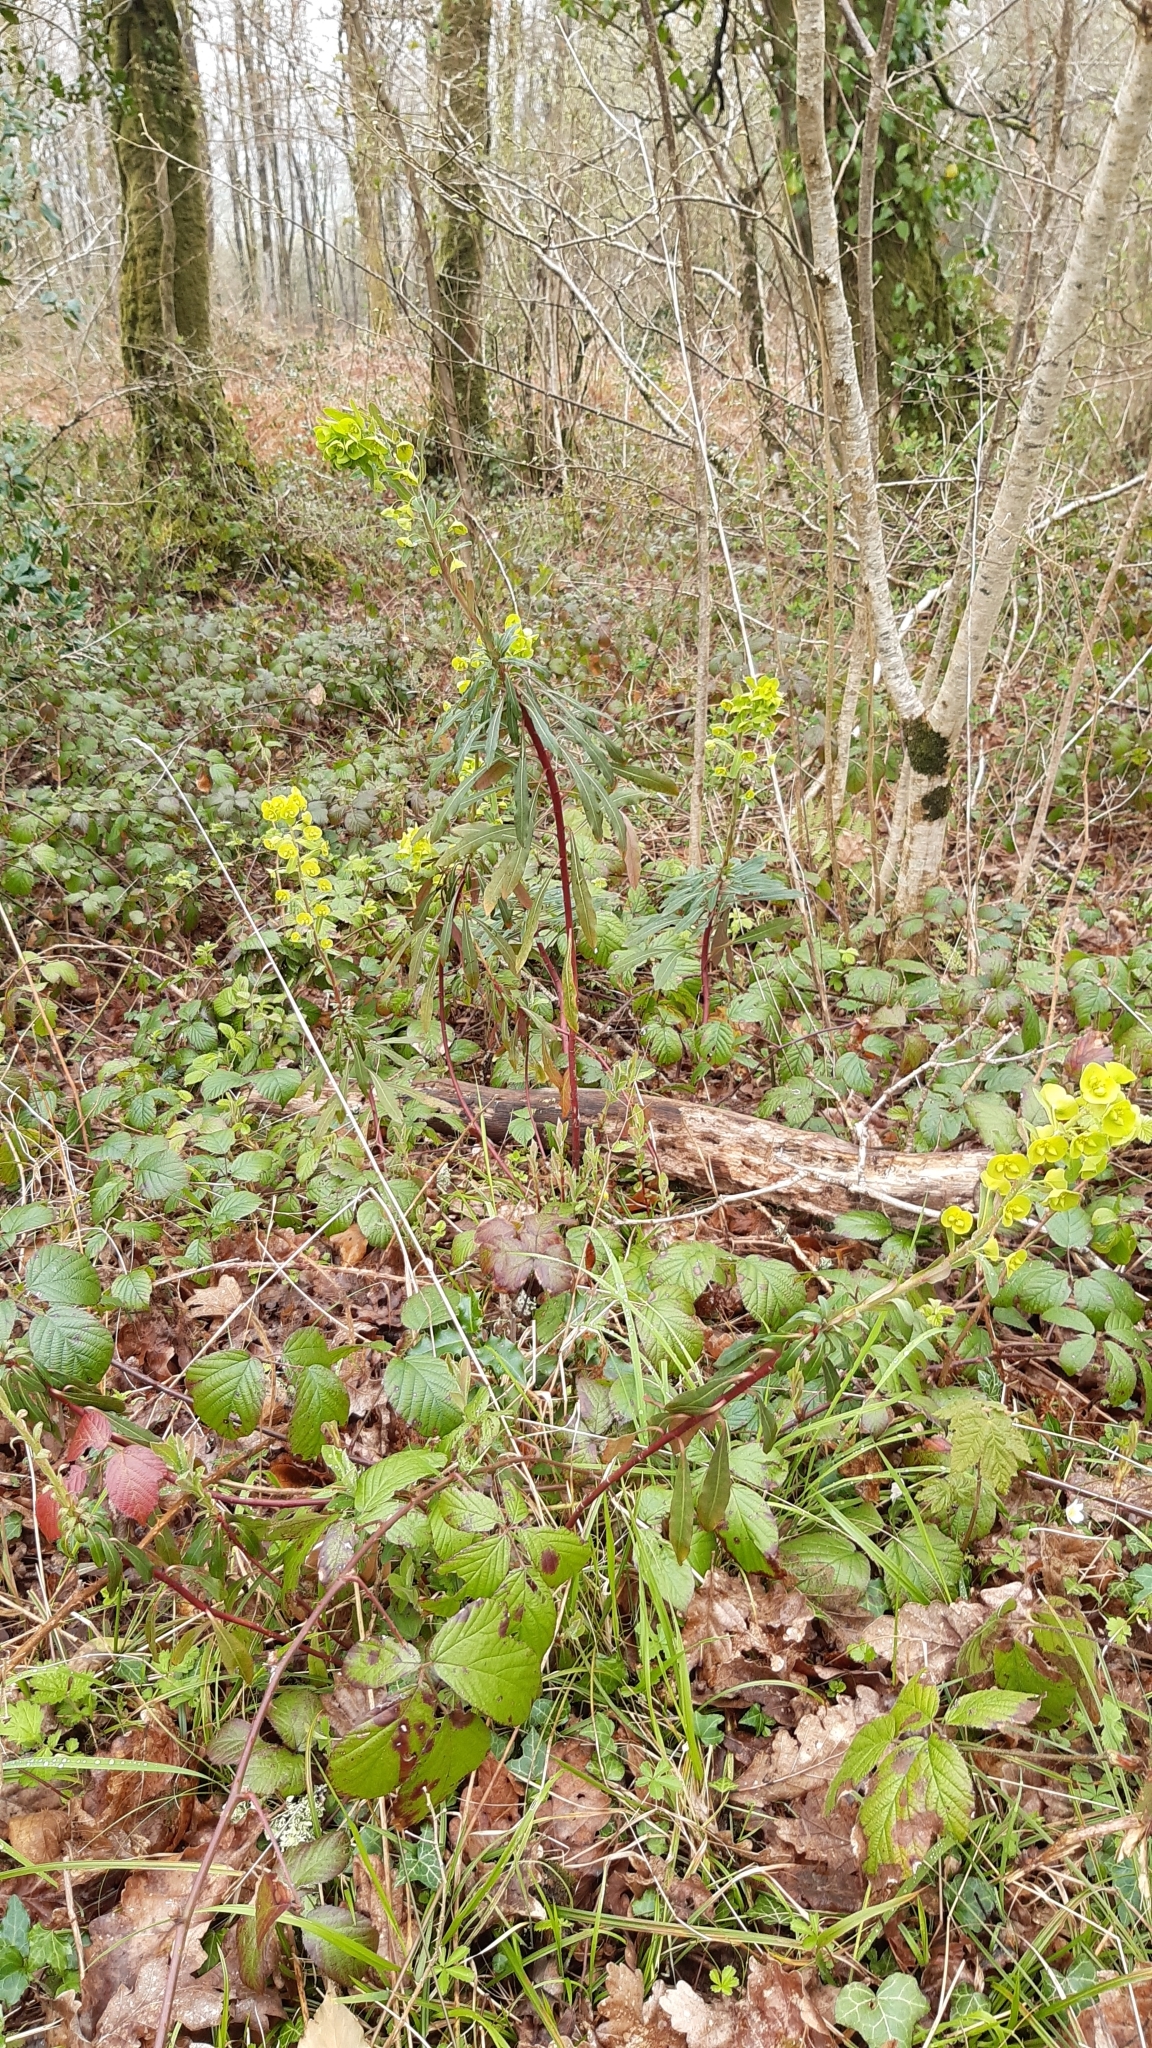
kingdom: Plantae
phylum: Tracheophyta
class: Magnoliopsida
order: Malpighiales
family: Euphorbiaceae
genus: Euphorbia
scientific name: Euphorbia amygdaloides
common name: Wood spurge
